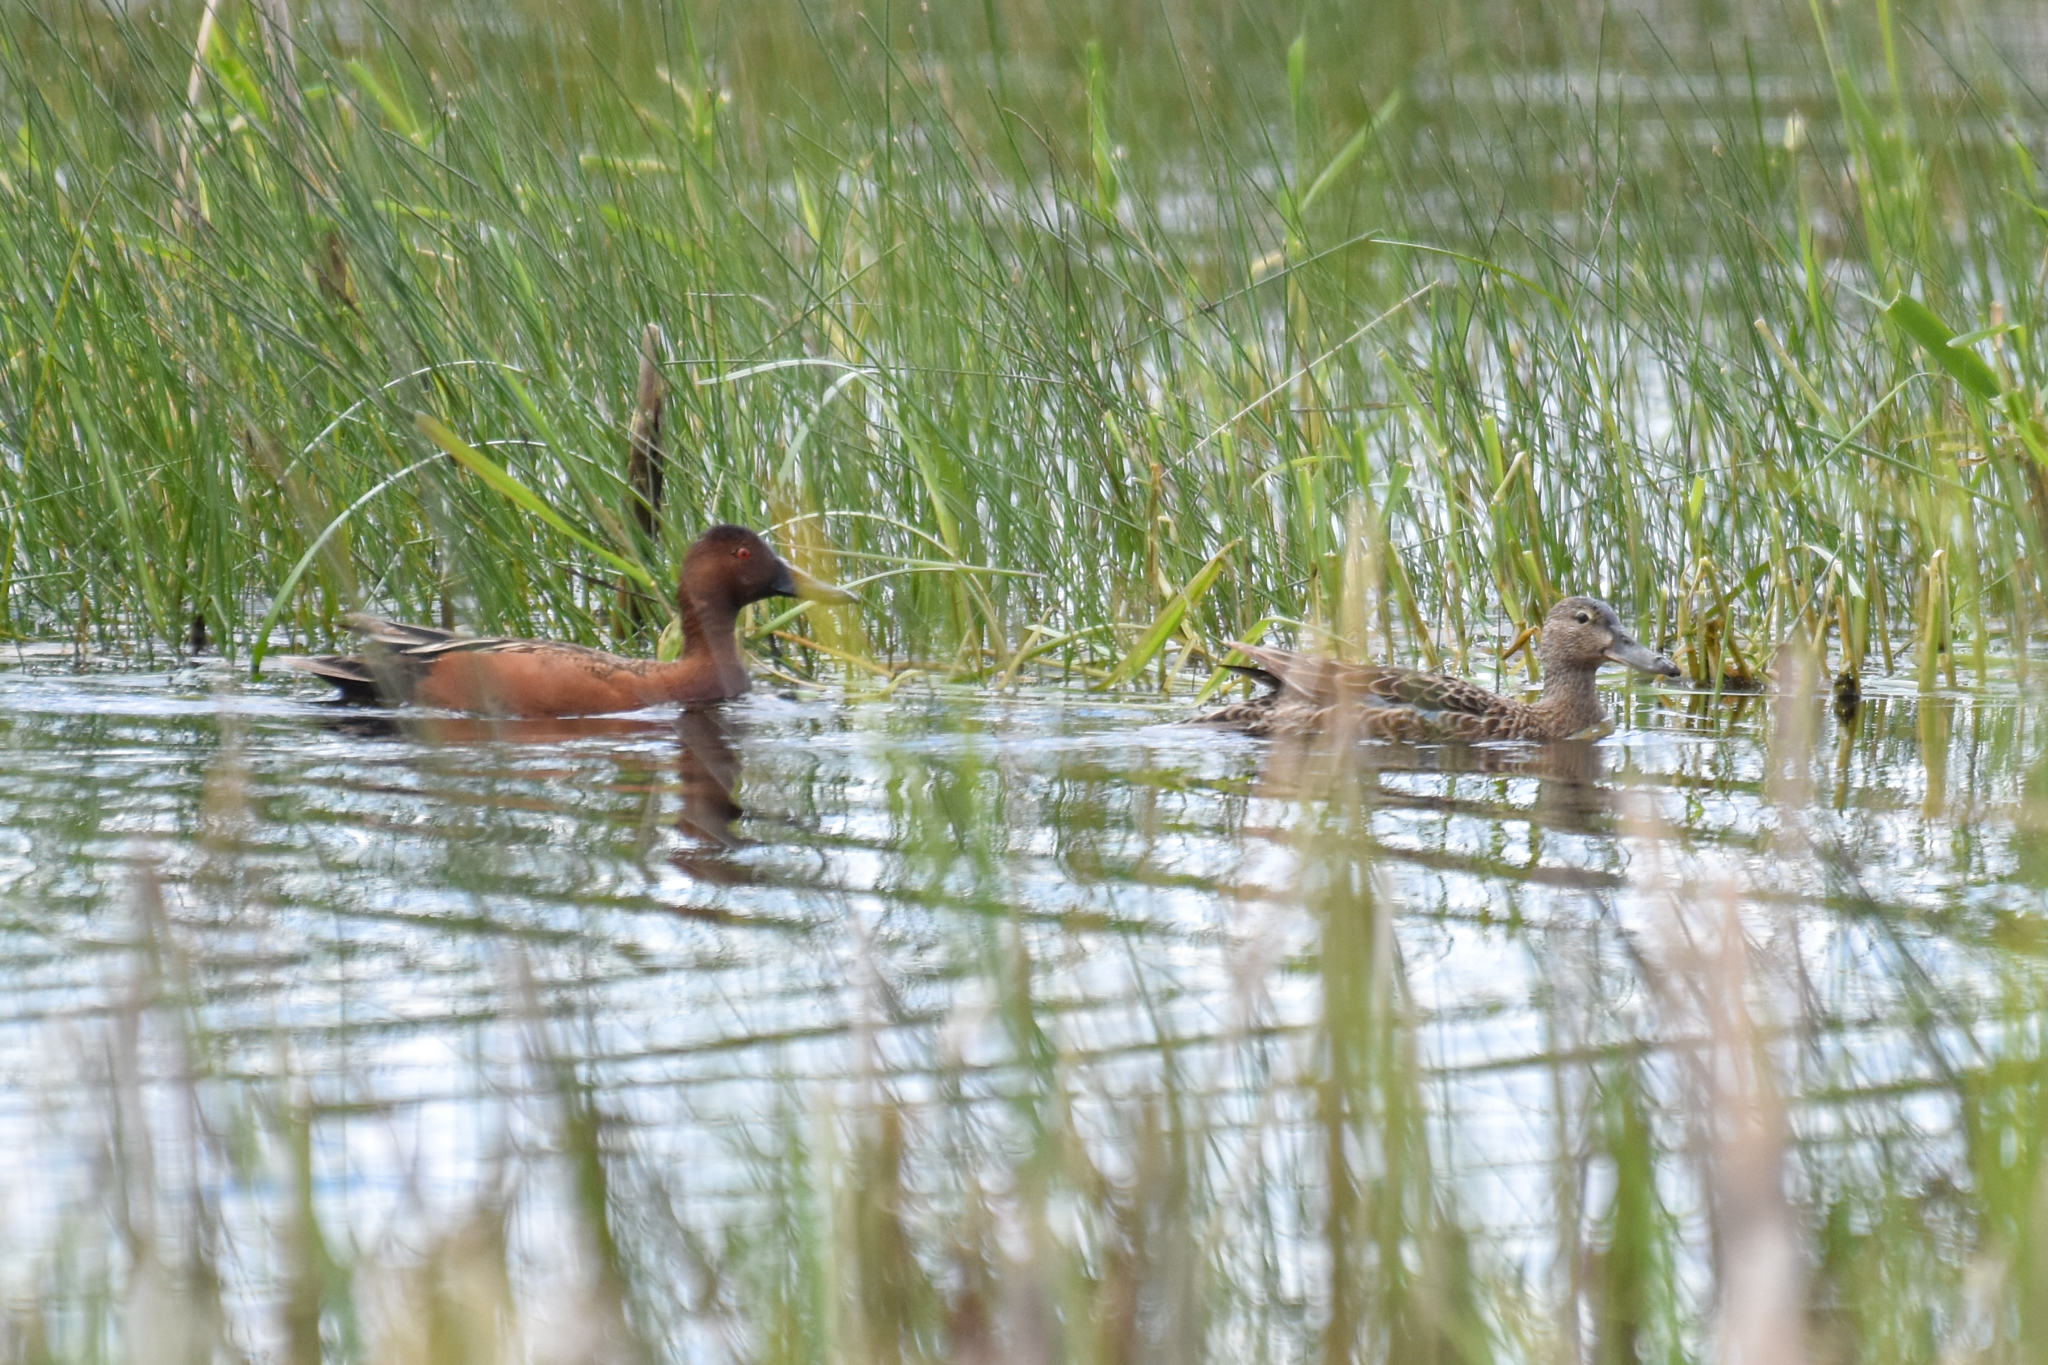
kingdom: Animalia
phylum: Chordata
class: Aves
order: Anseriformes
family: Anatidae
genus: Spatula
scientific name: Spatula cyanoptera
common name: Cinnamon teal
